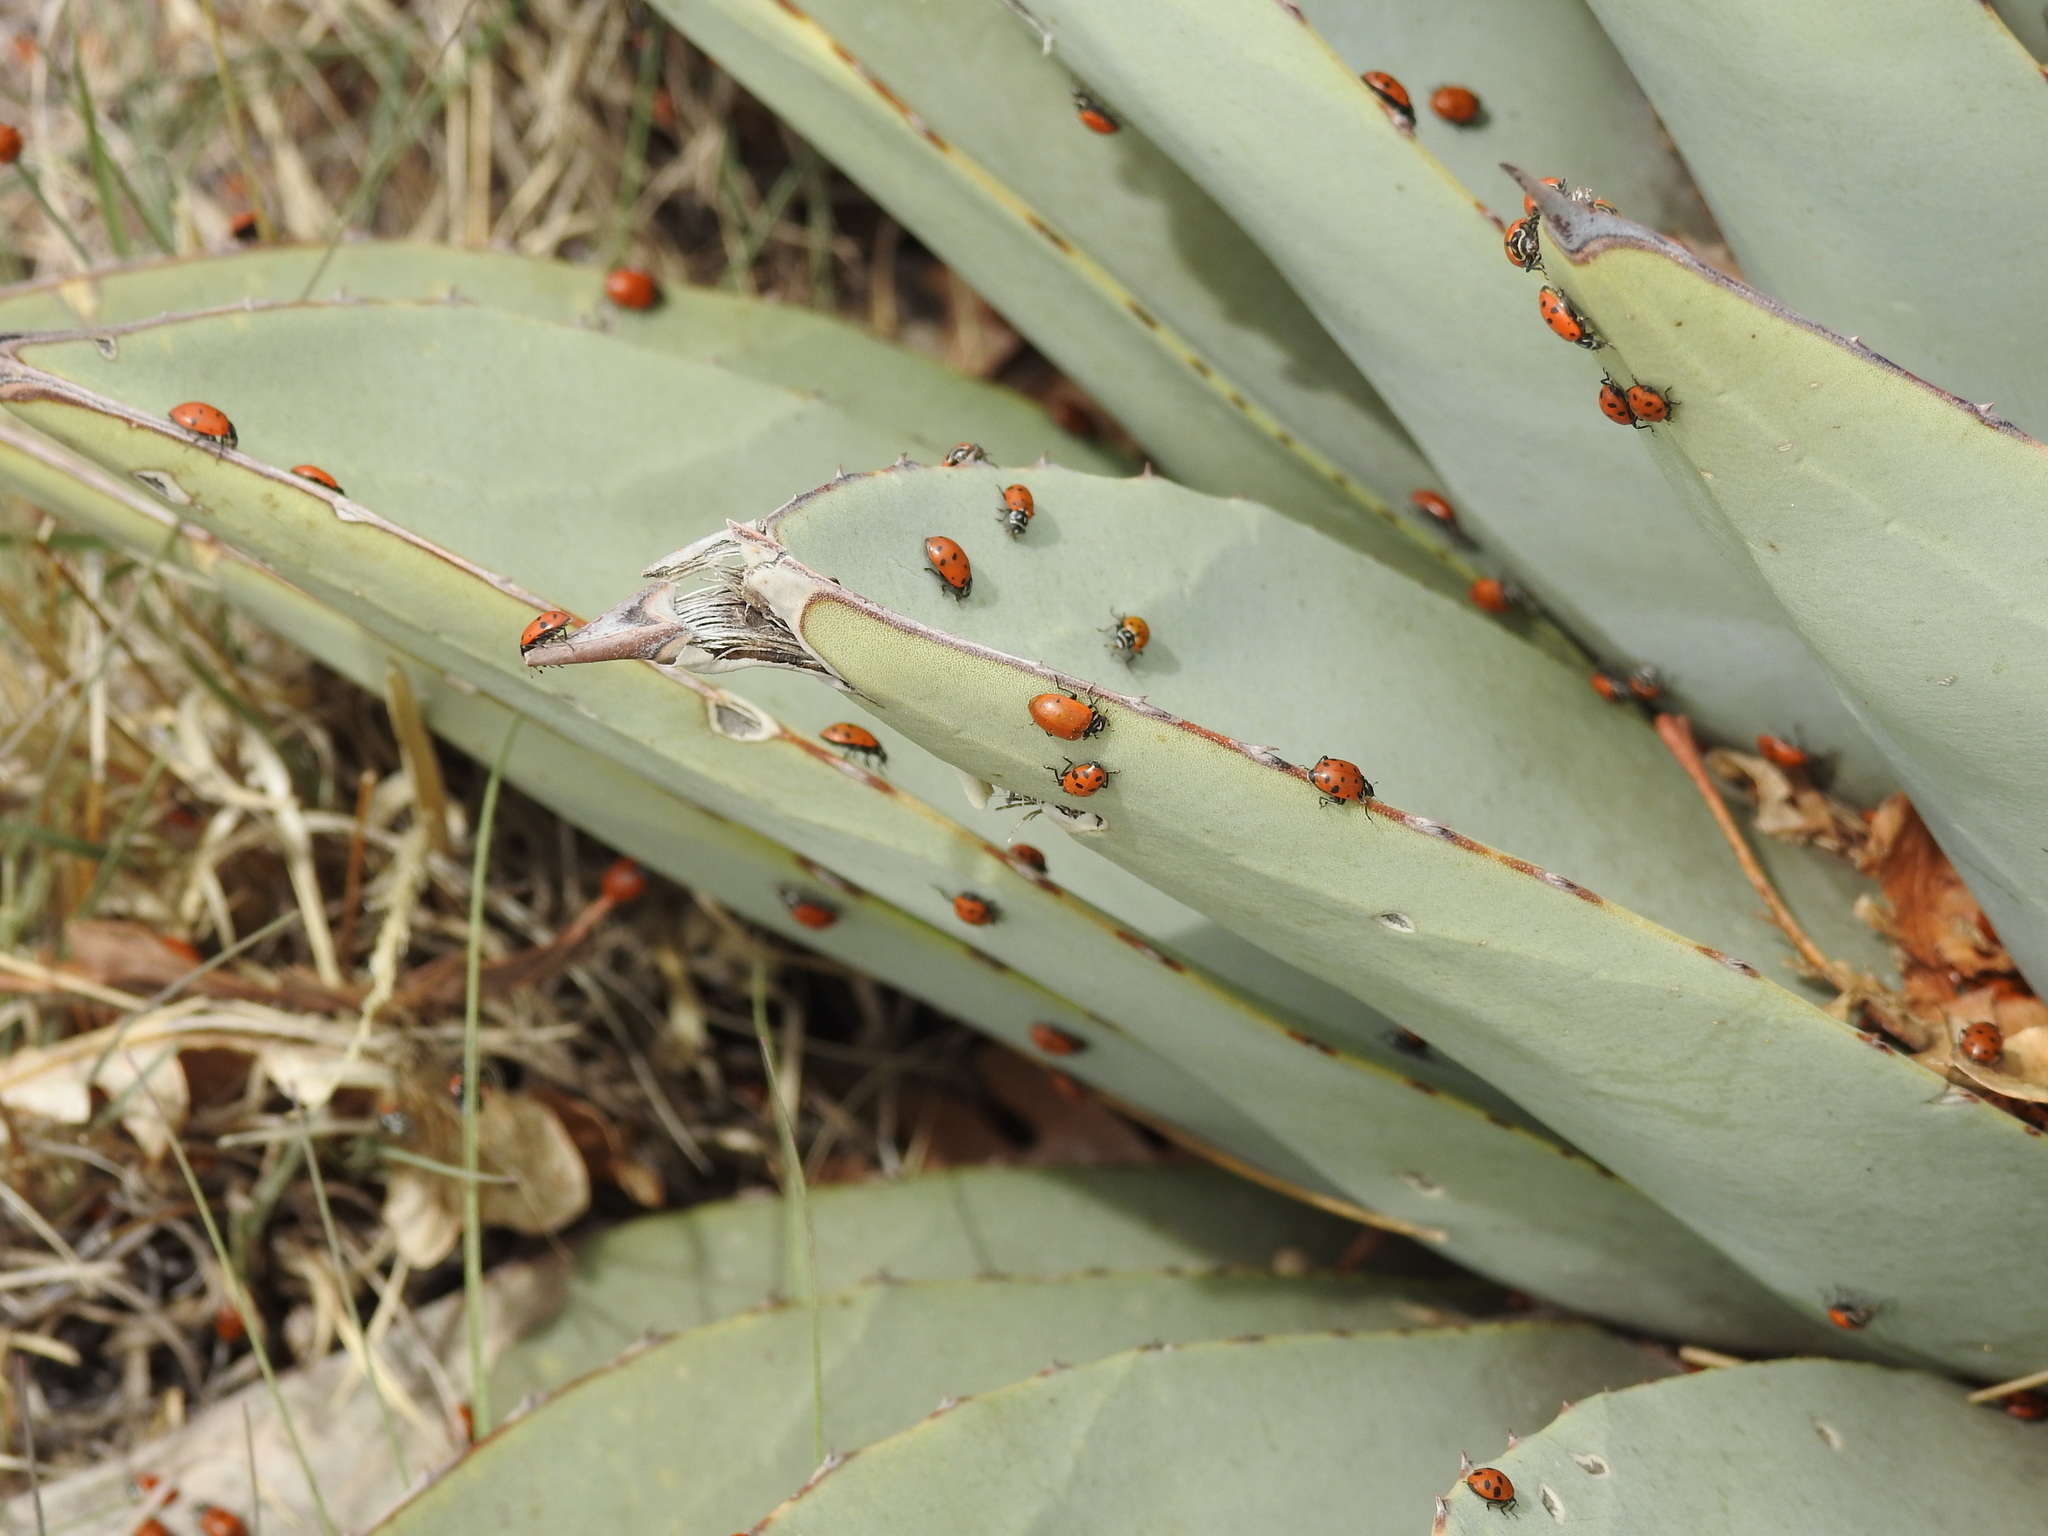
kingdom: Animalia
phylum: Arthropoda
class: Insecta
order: Coleoptera
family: Coccinellidae
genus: Hippodamia
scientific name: Hippodamia convergens
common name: Convergent lady beetle
